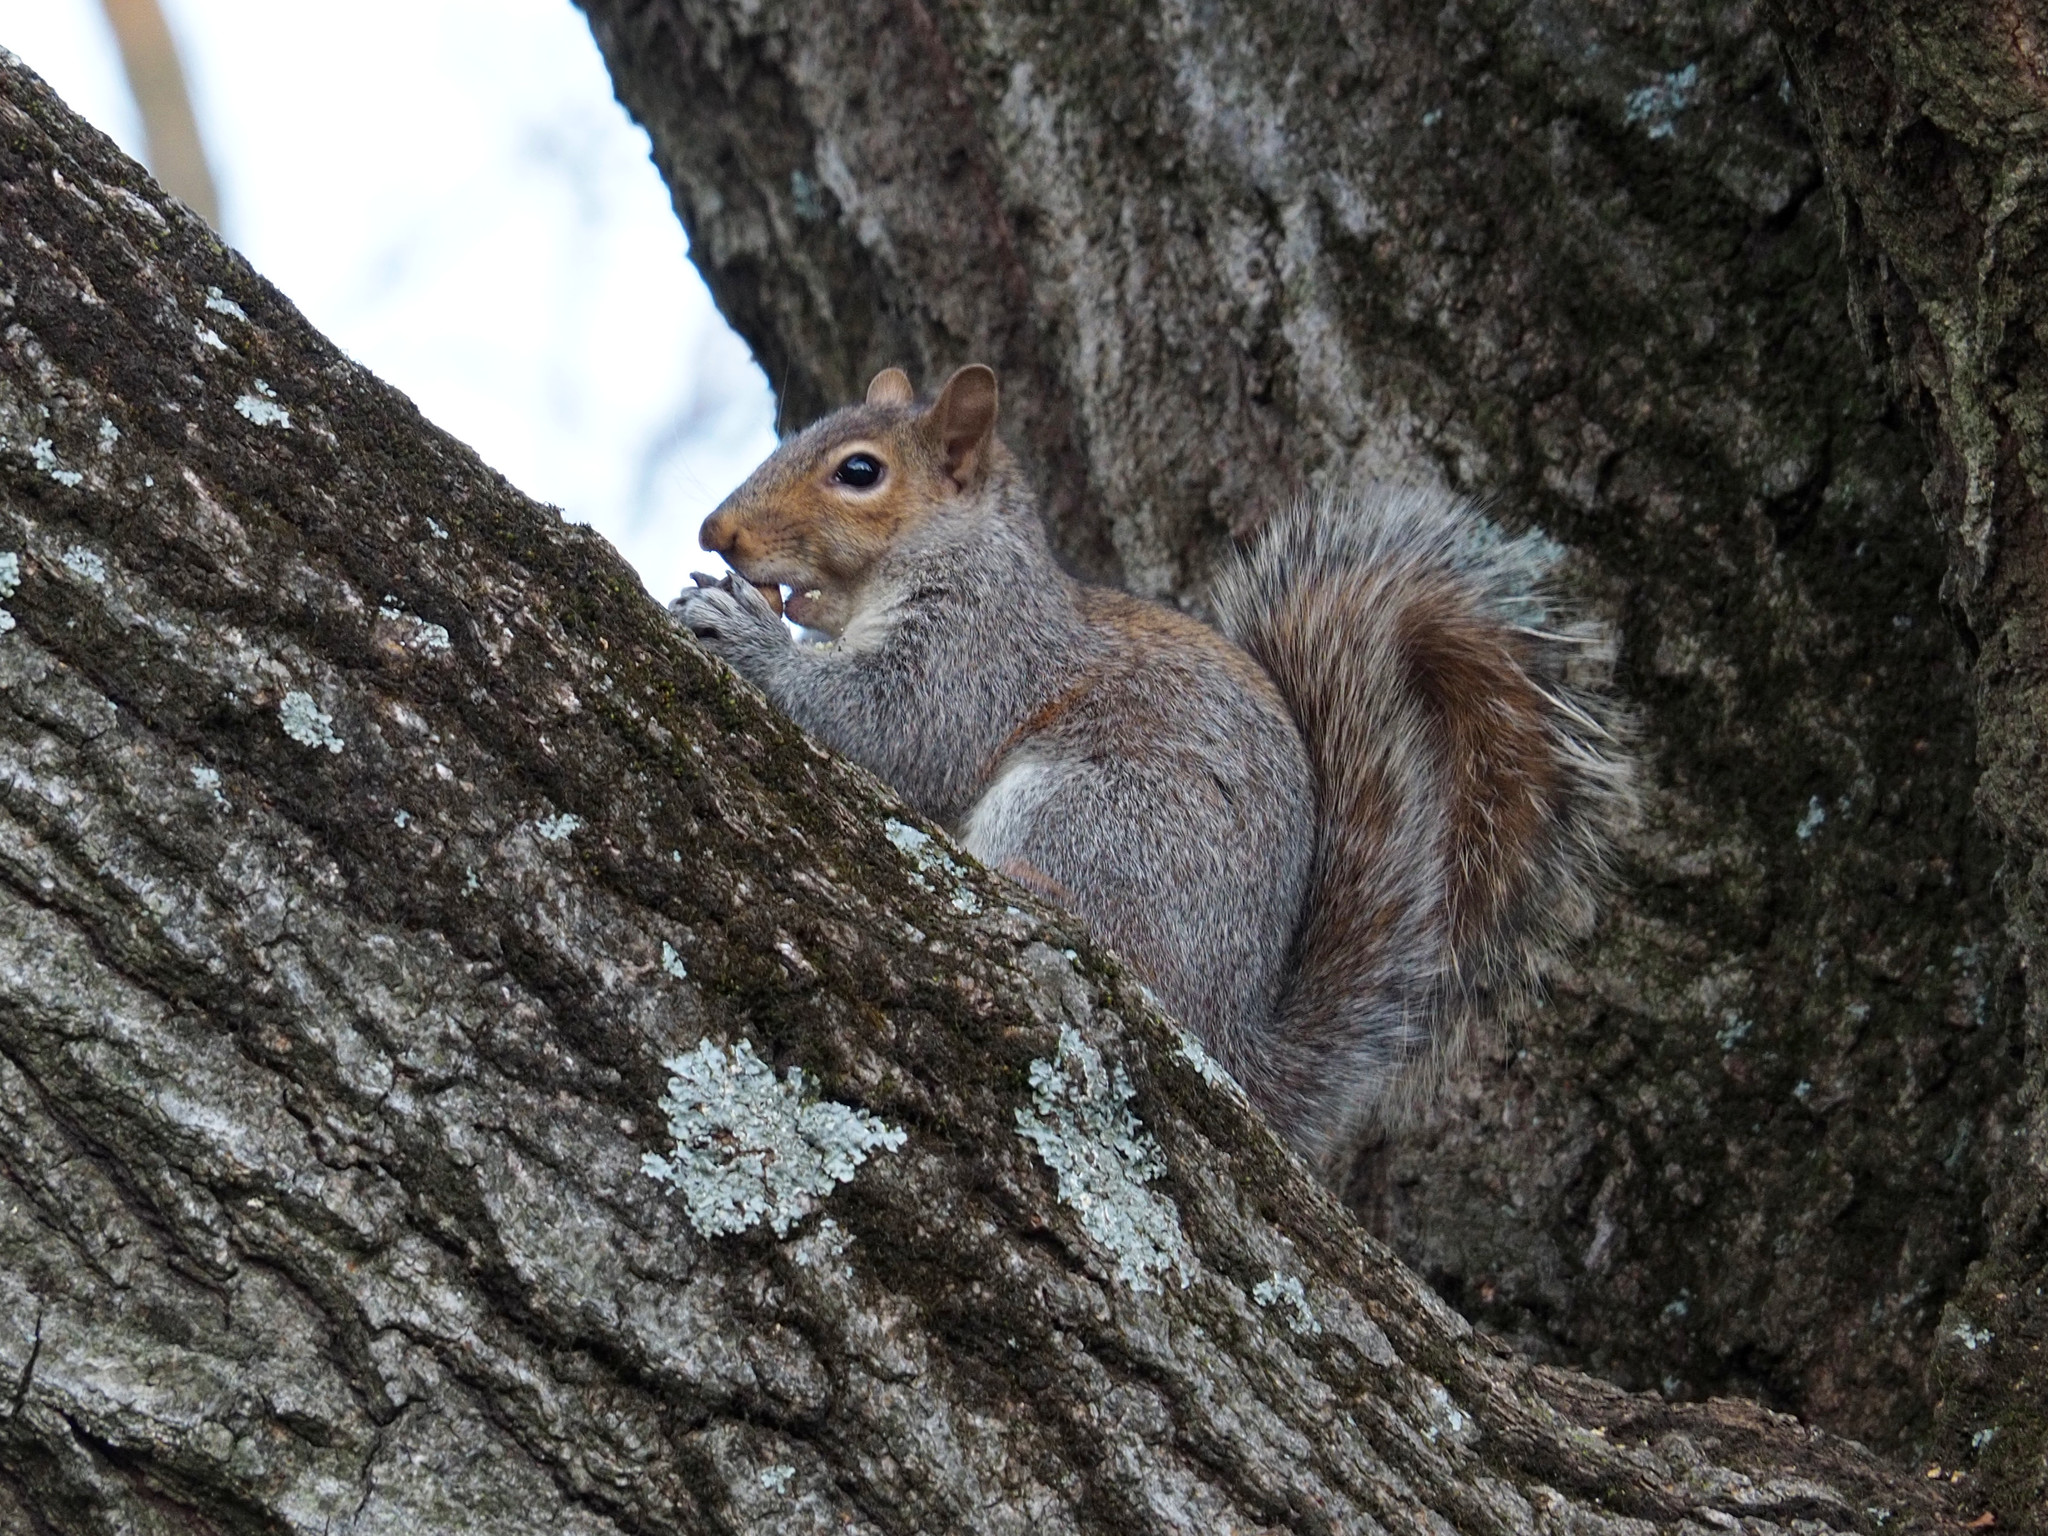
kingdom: Animalia
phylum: Chordata
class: Mammalia
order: Rodentia
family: Sciuridae
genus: Sciurus
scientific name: Sciurus carolinensis
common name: Eastern gray squirrel
